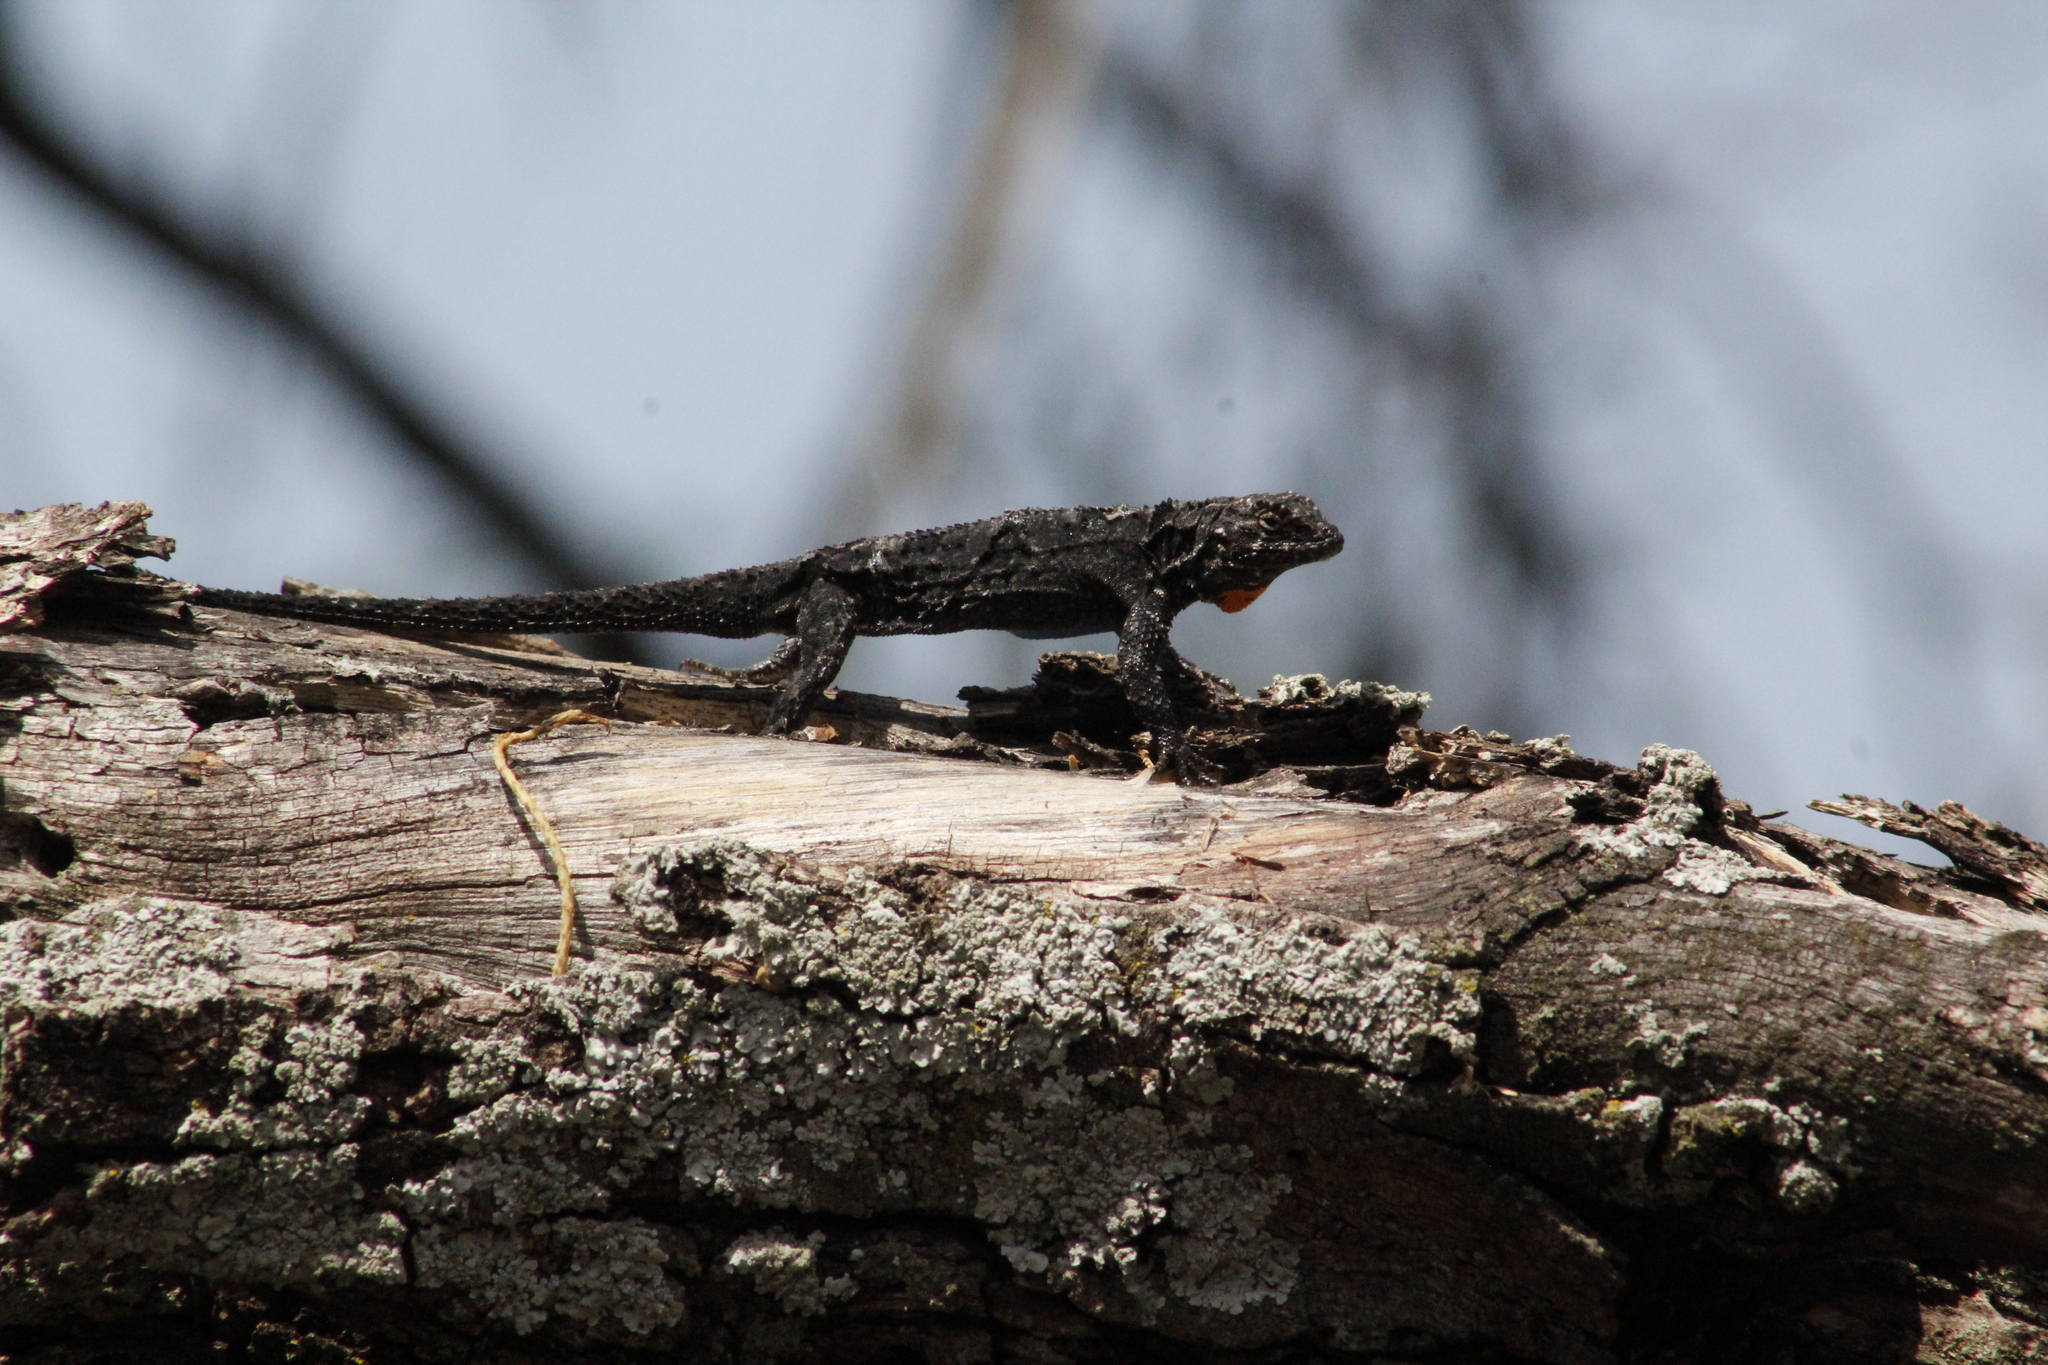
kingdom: Animalia
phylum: Chordata
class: Squamata
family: Phrynosomatidae
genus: Urosaurus
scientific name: Urosaurus bicarinatus
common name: Tropical tree lizard
